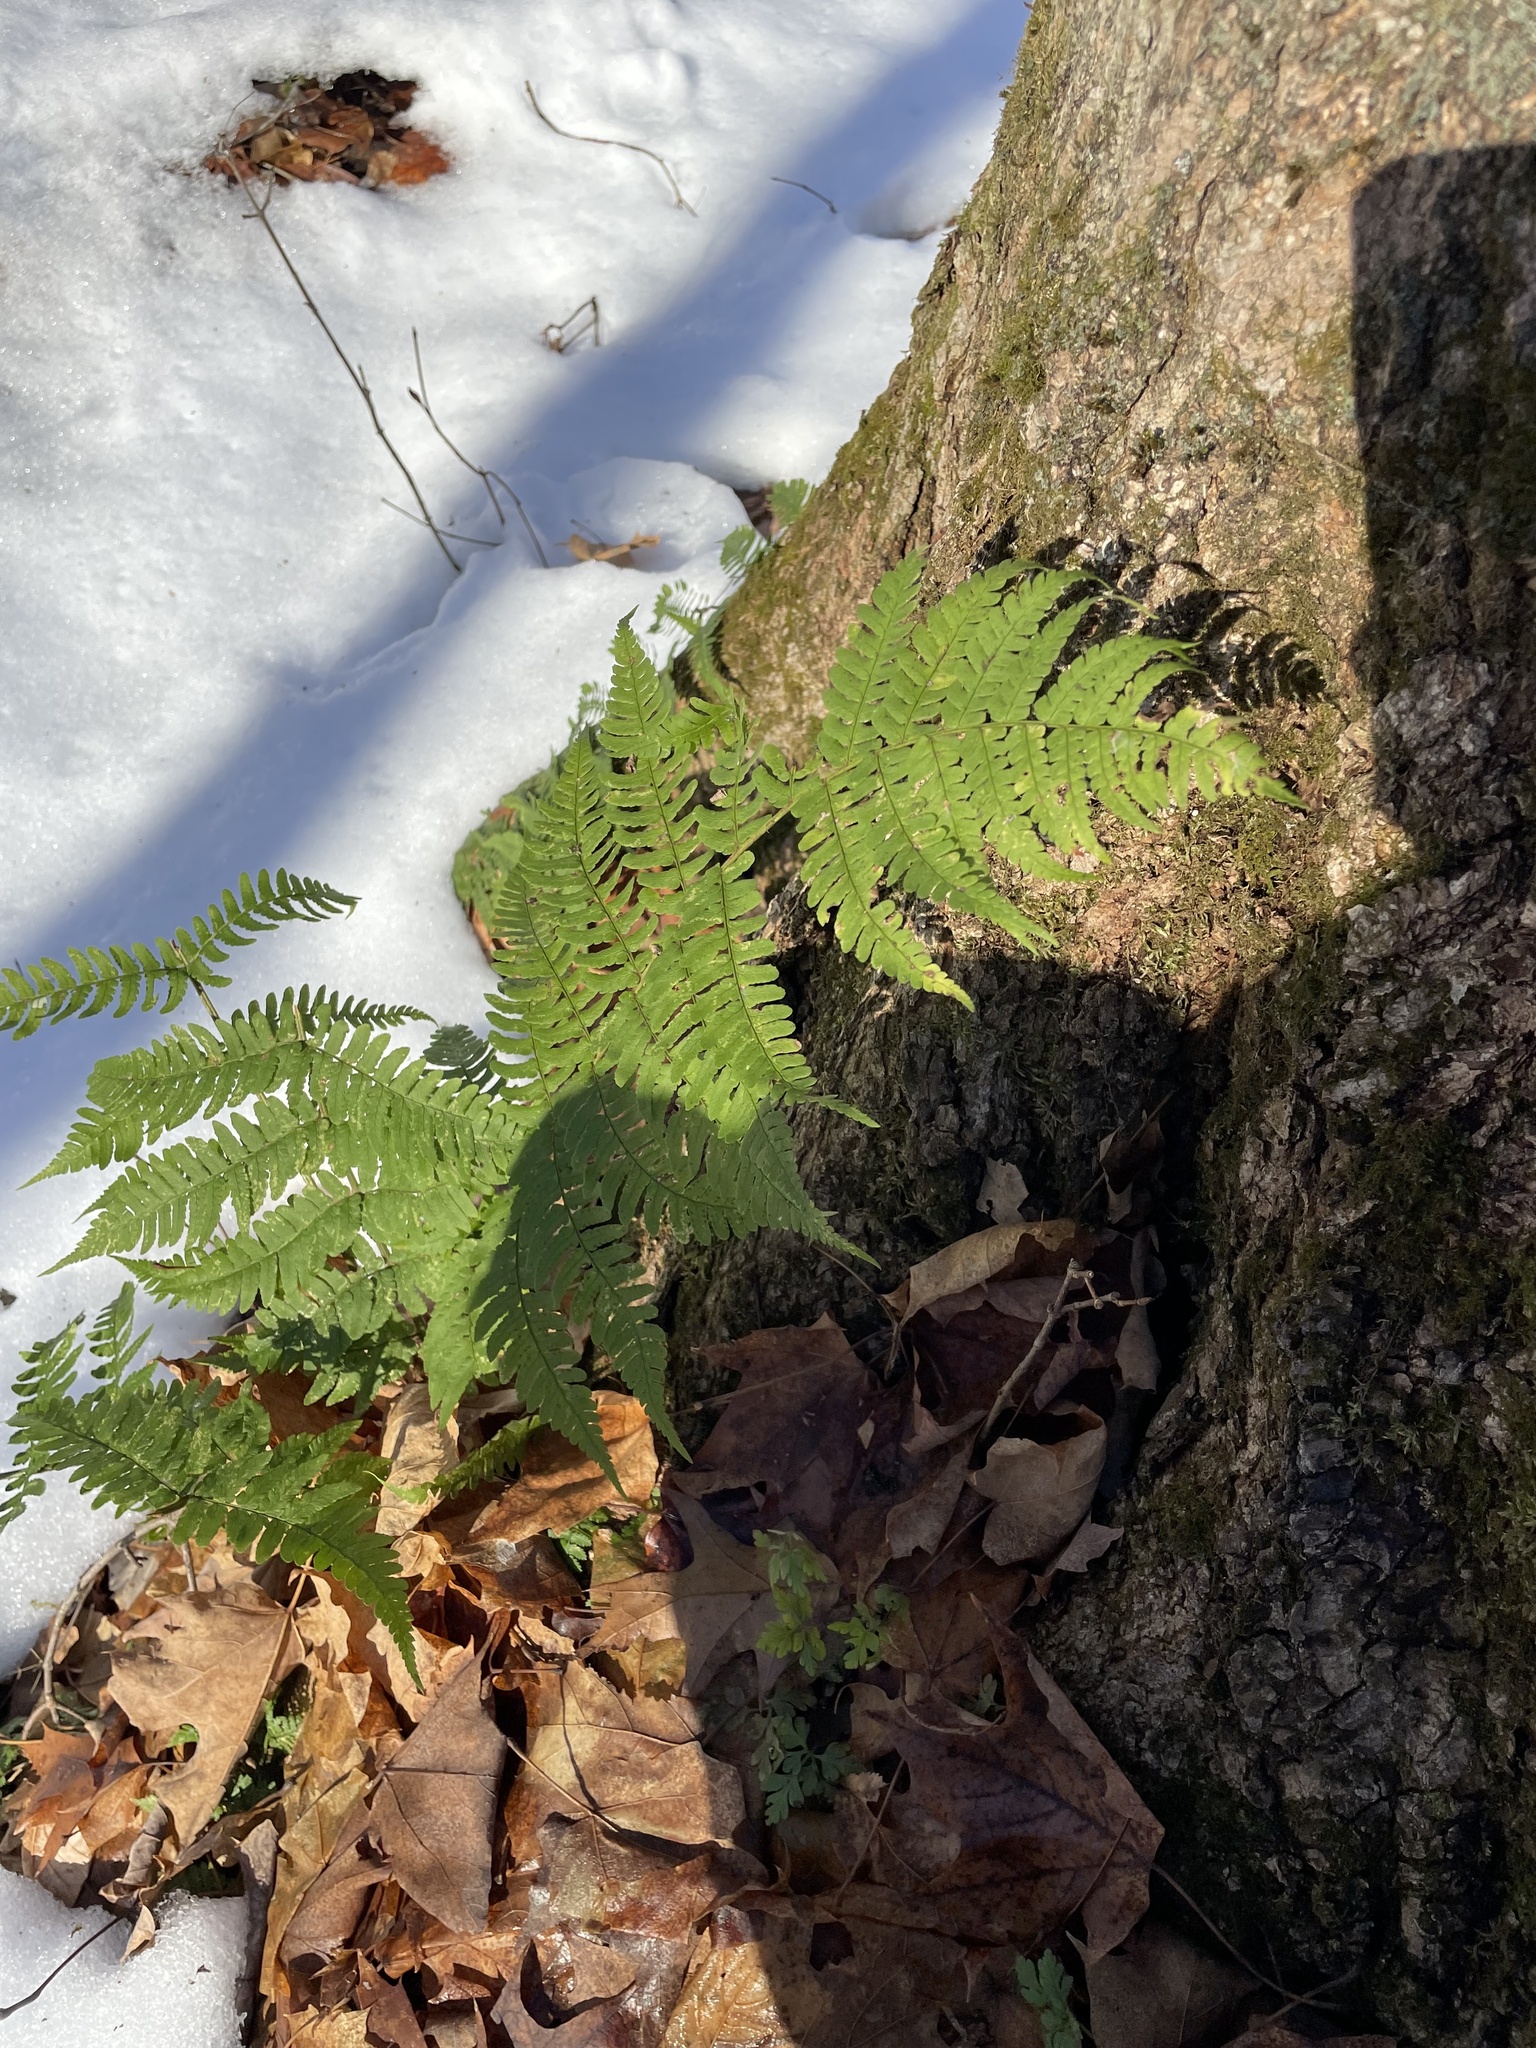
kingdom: Plantae
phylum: Tracheophyta
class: Polypodiopsida
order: Polypodiales
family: Dryopteridaceae
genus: Dryopteris
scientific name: Dryopteris marginalis
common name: Marginal wood fern
